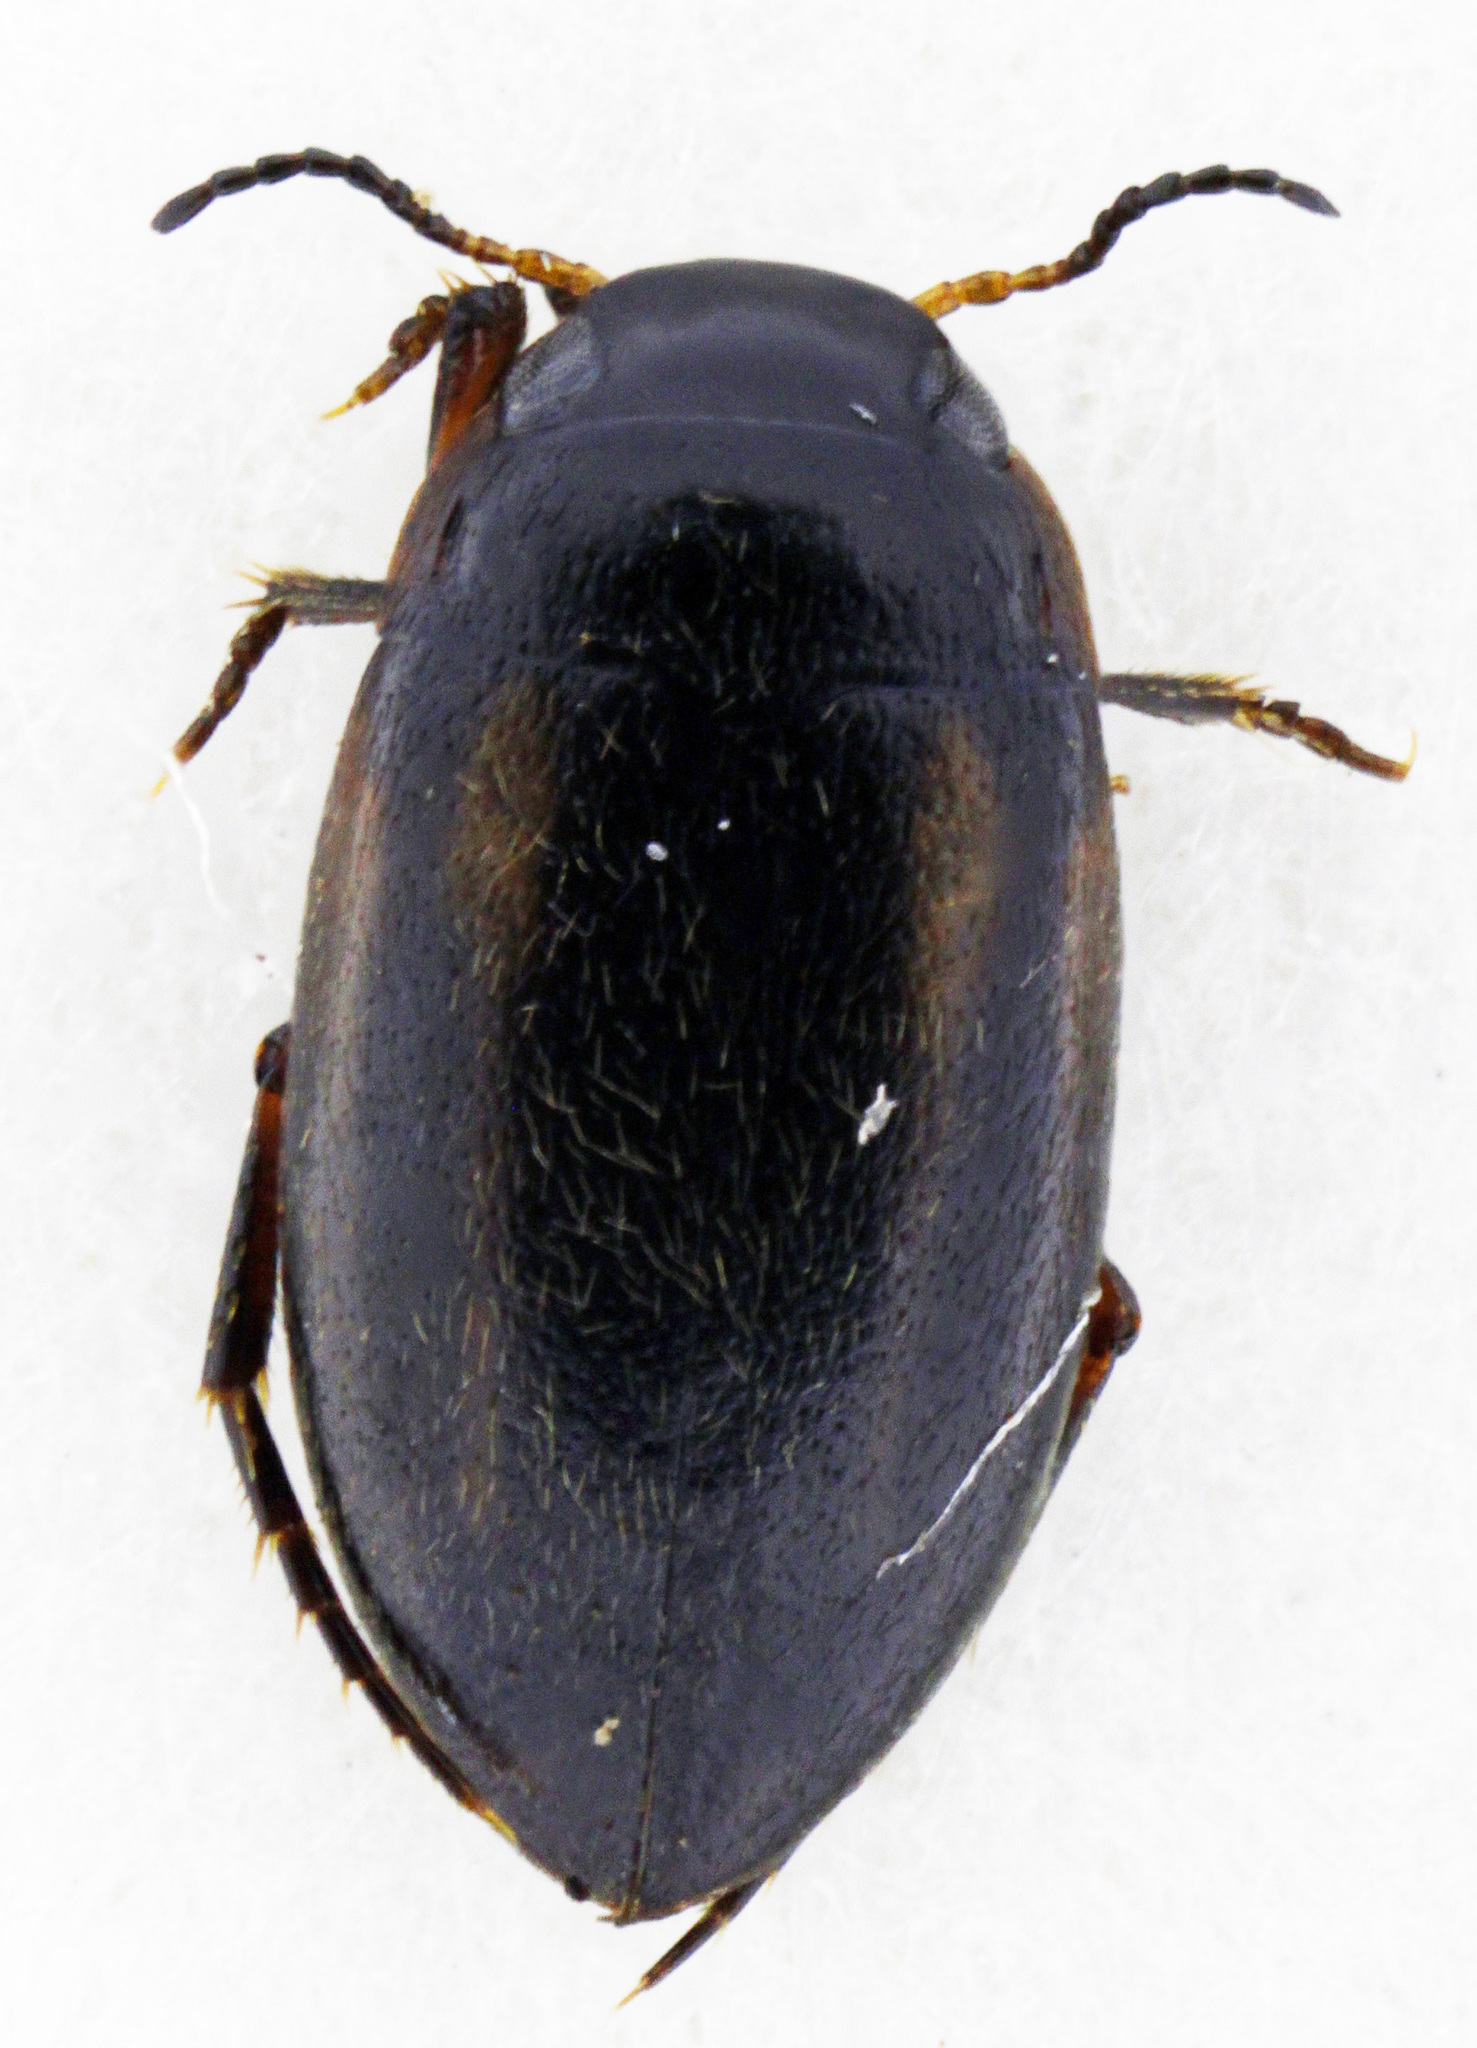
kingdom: Animalia
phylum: Arthropoda
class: Insecta
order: Coleoptera
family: Dytiscidae
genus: Graptodytes
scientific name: Graptodytes bilineatus
